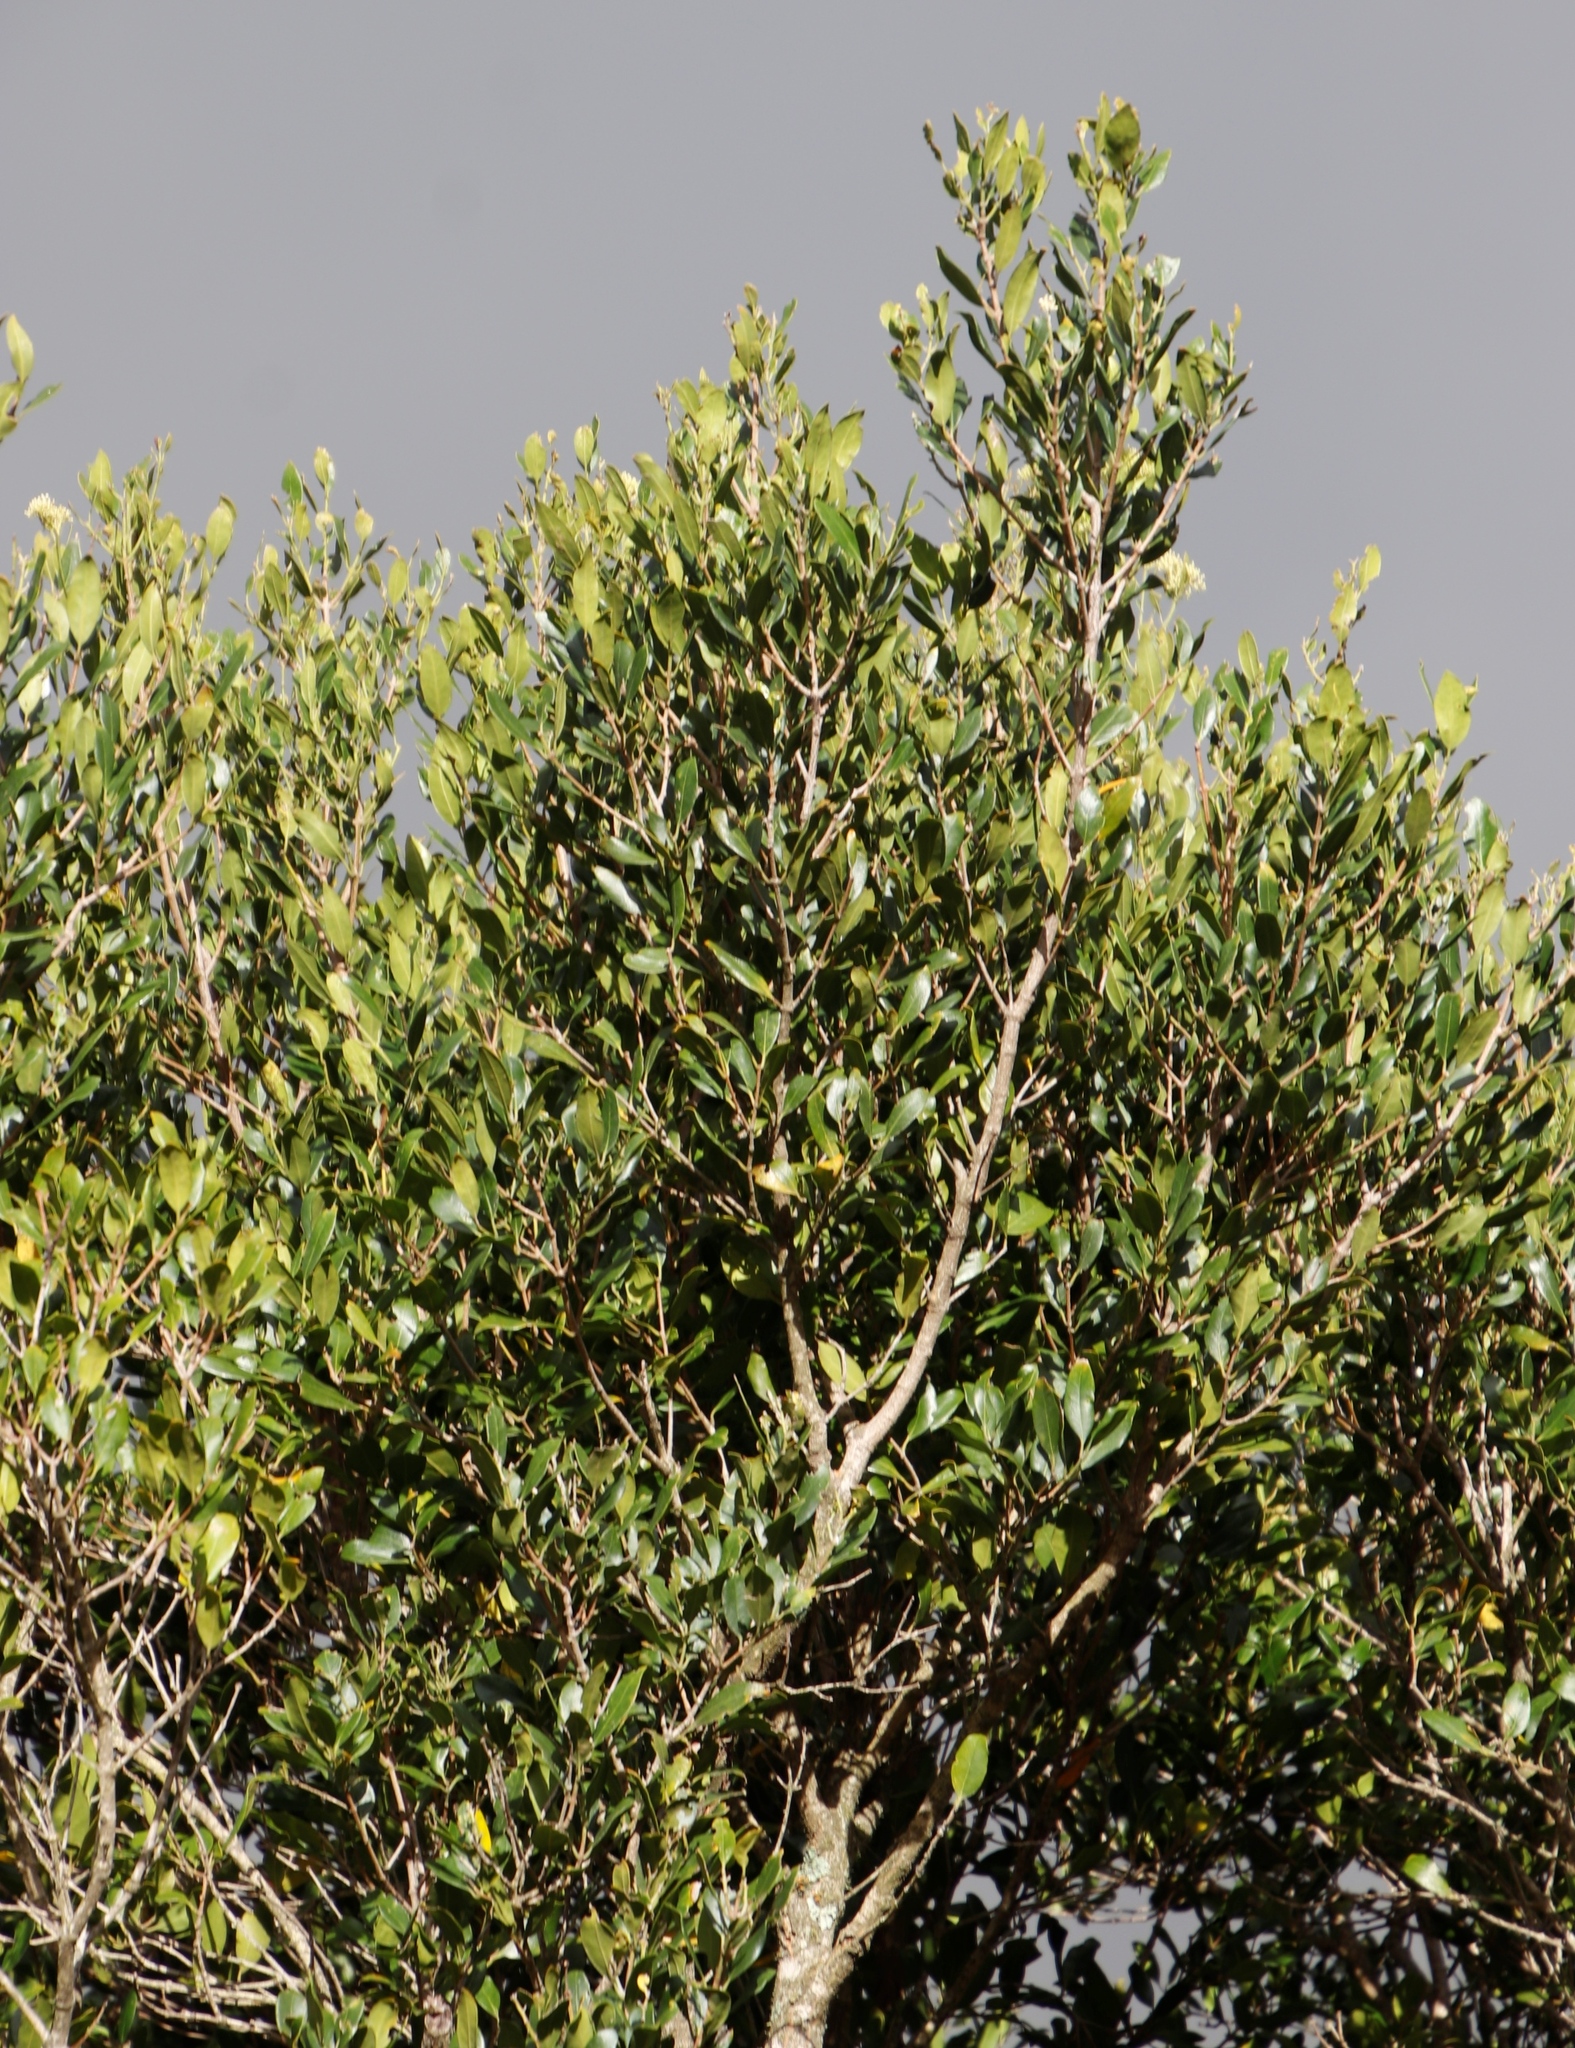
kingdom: Plantae
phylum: Tracheophyta
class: Magnoliopsida
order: Lamiales
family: Oleaceae
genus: Olea
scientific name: Olea capensis
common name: Black ironwood
